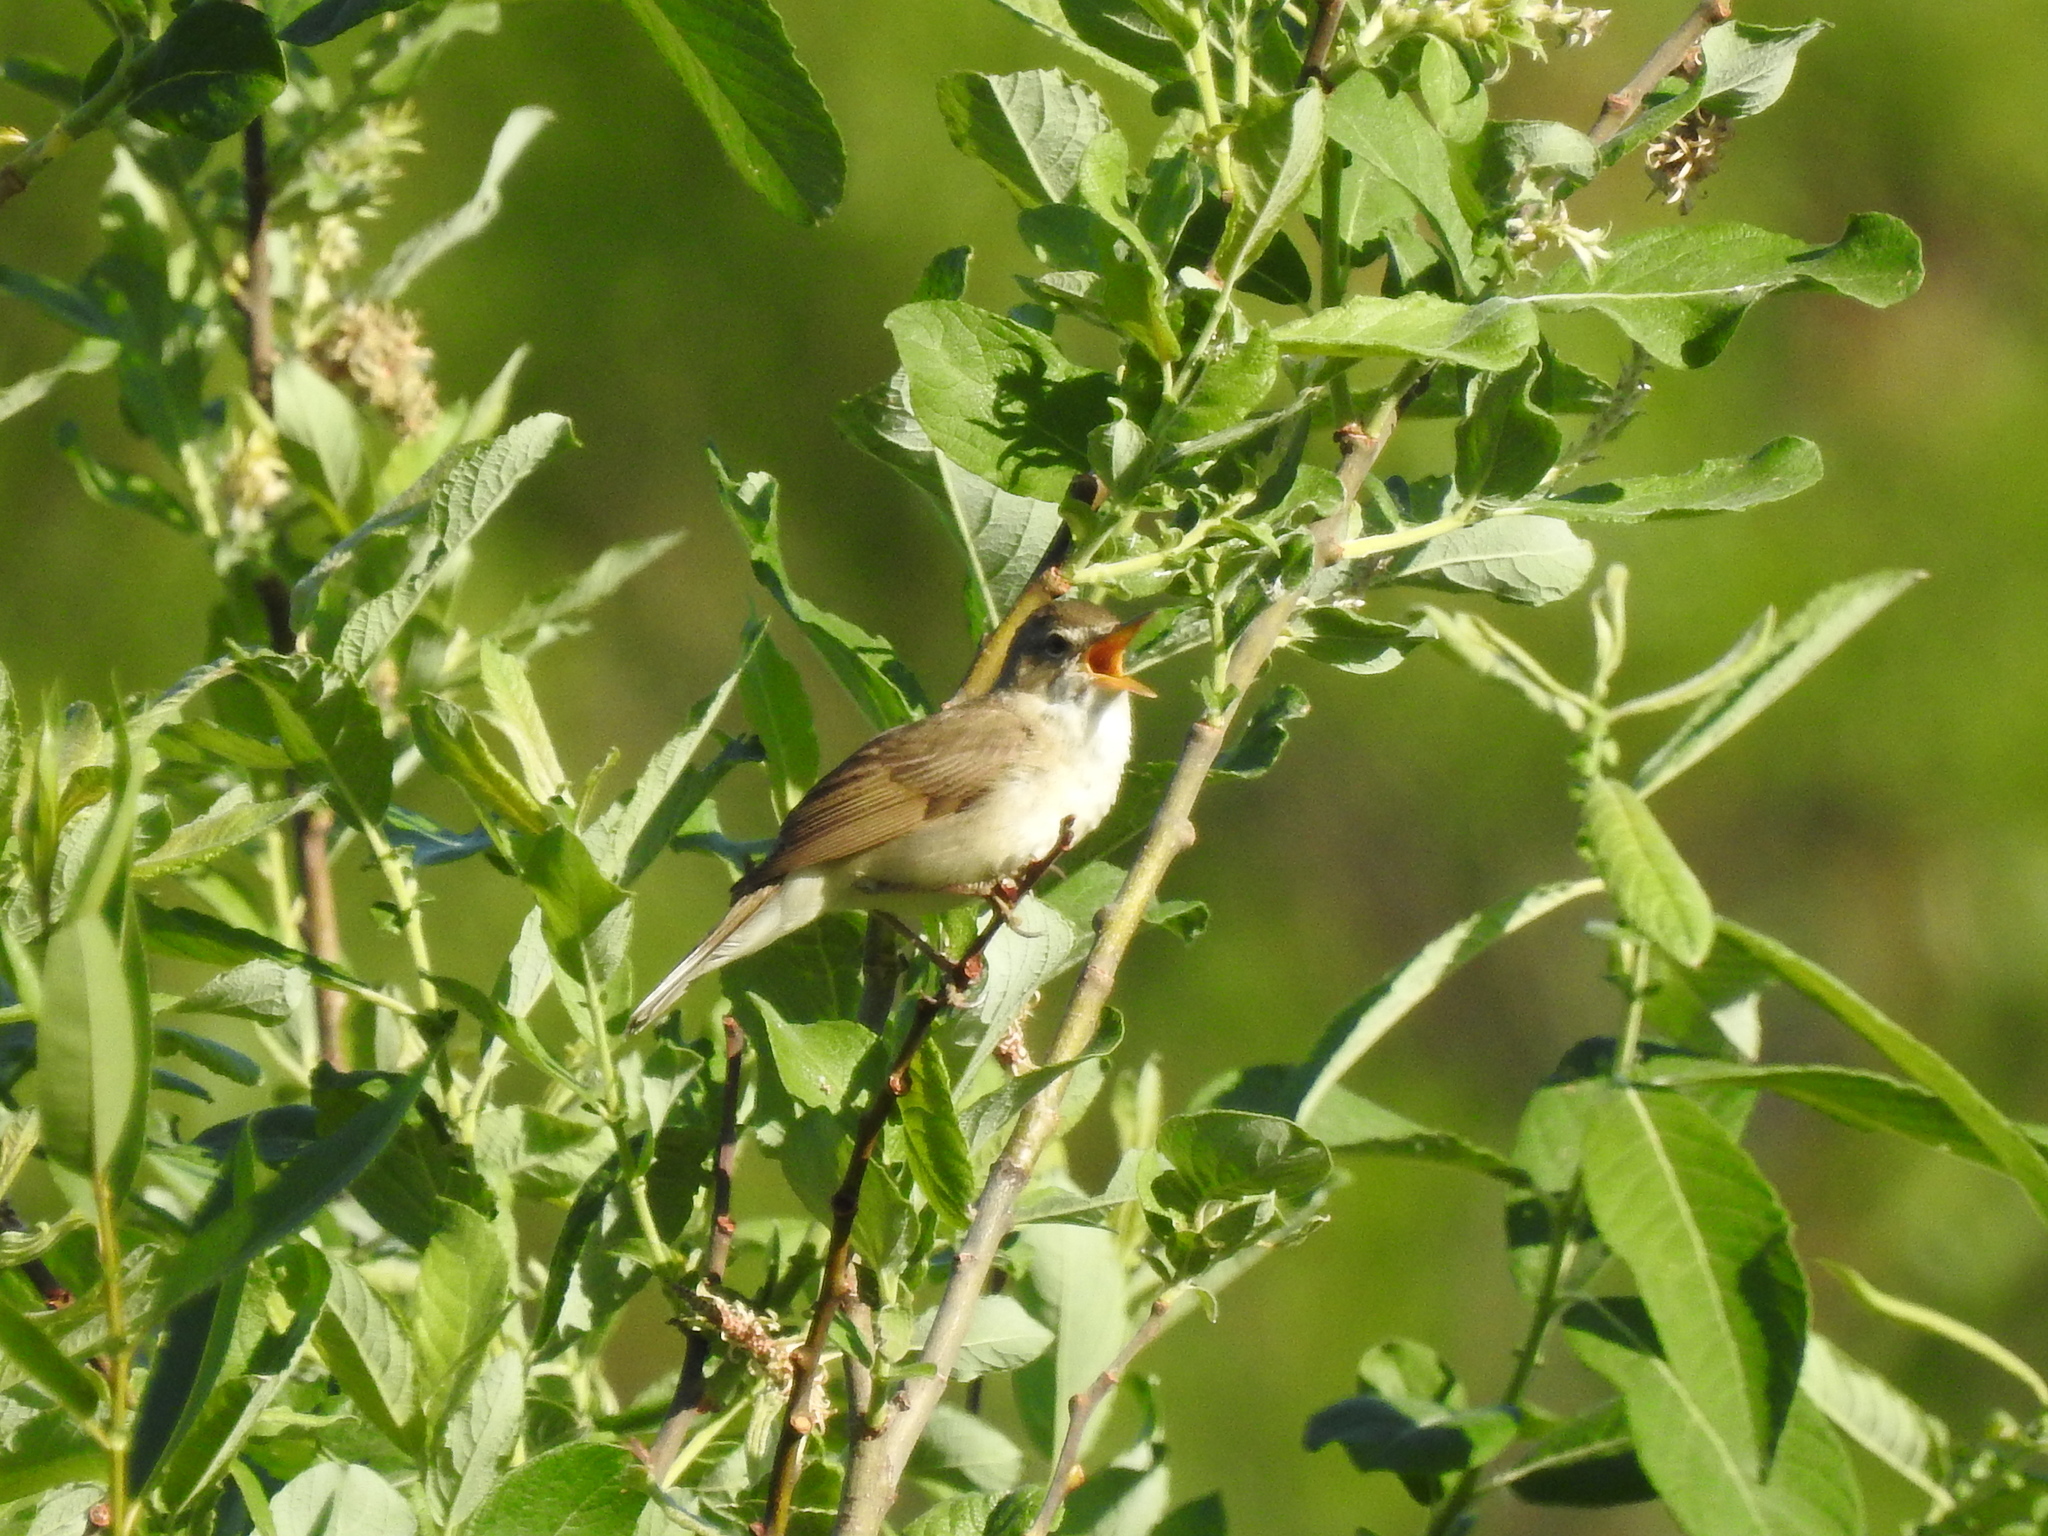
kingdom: Animalia
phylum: Chordata
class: Aves
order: Passeriformes
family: Acrocephalidae
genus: Acrocephalus
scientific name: Acrocephalus dumetorum
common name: Blyth's reed warbler
